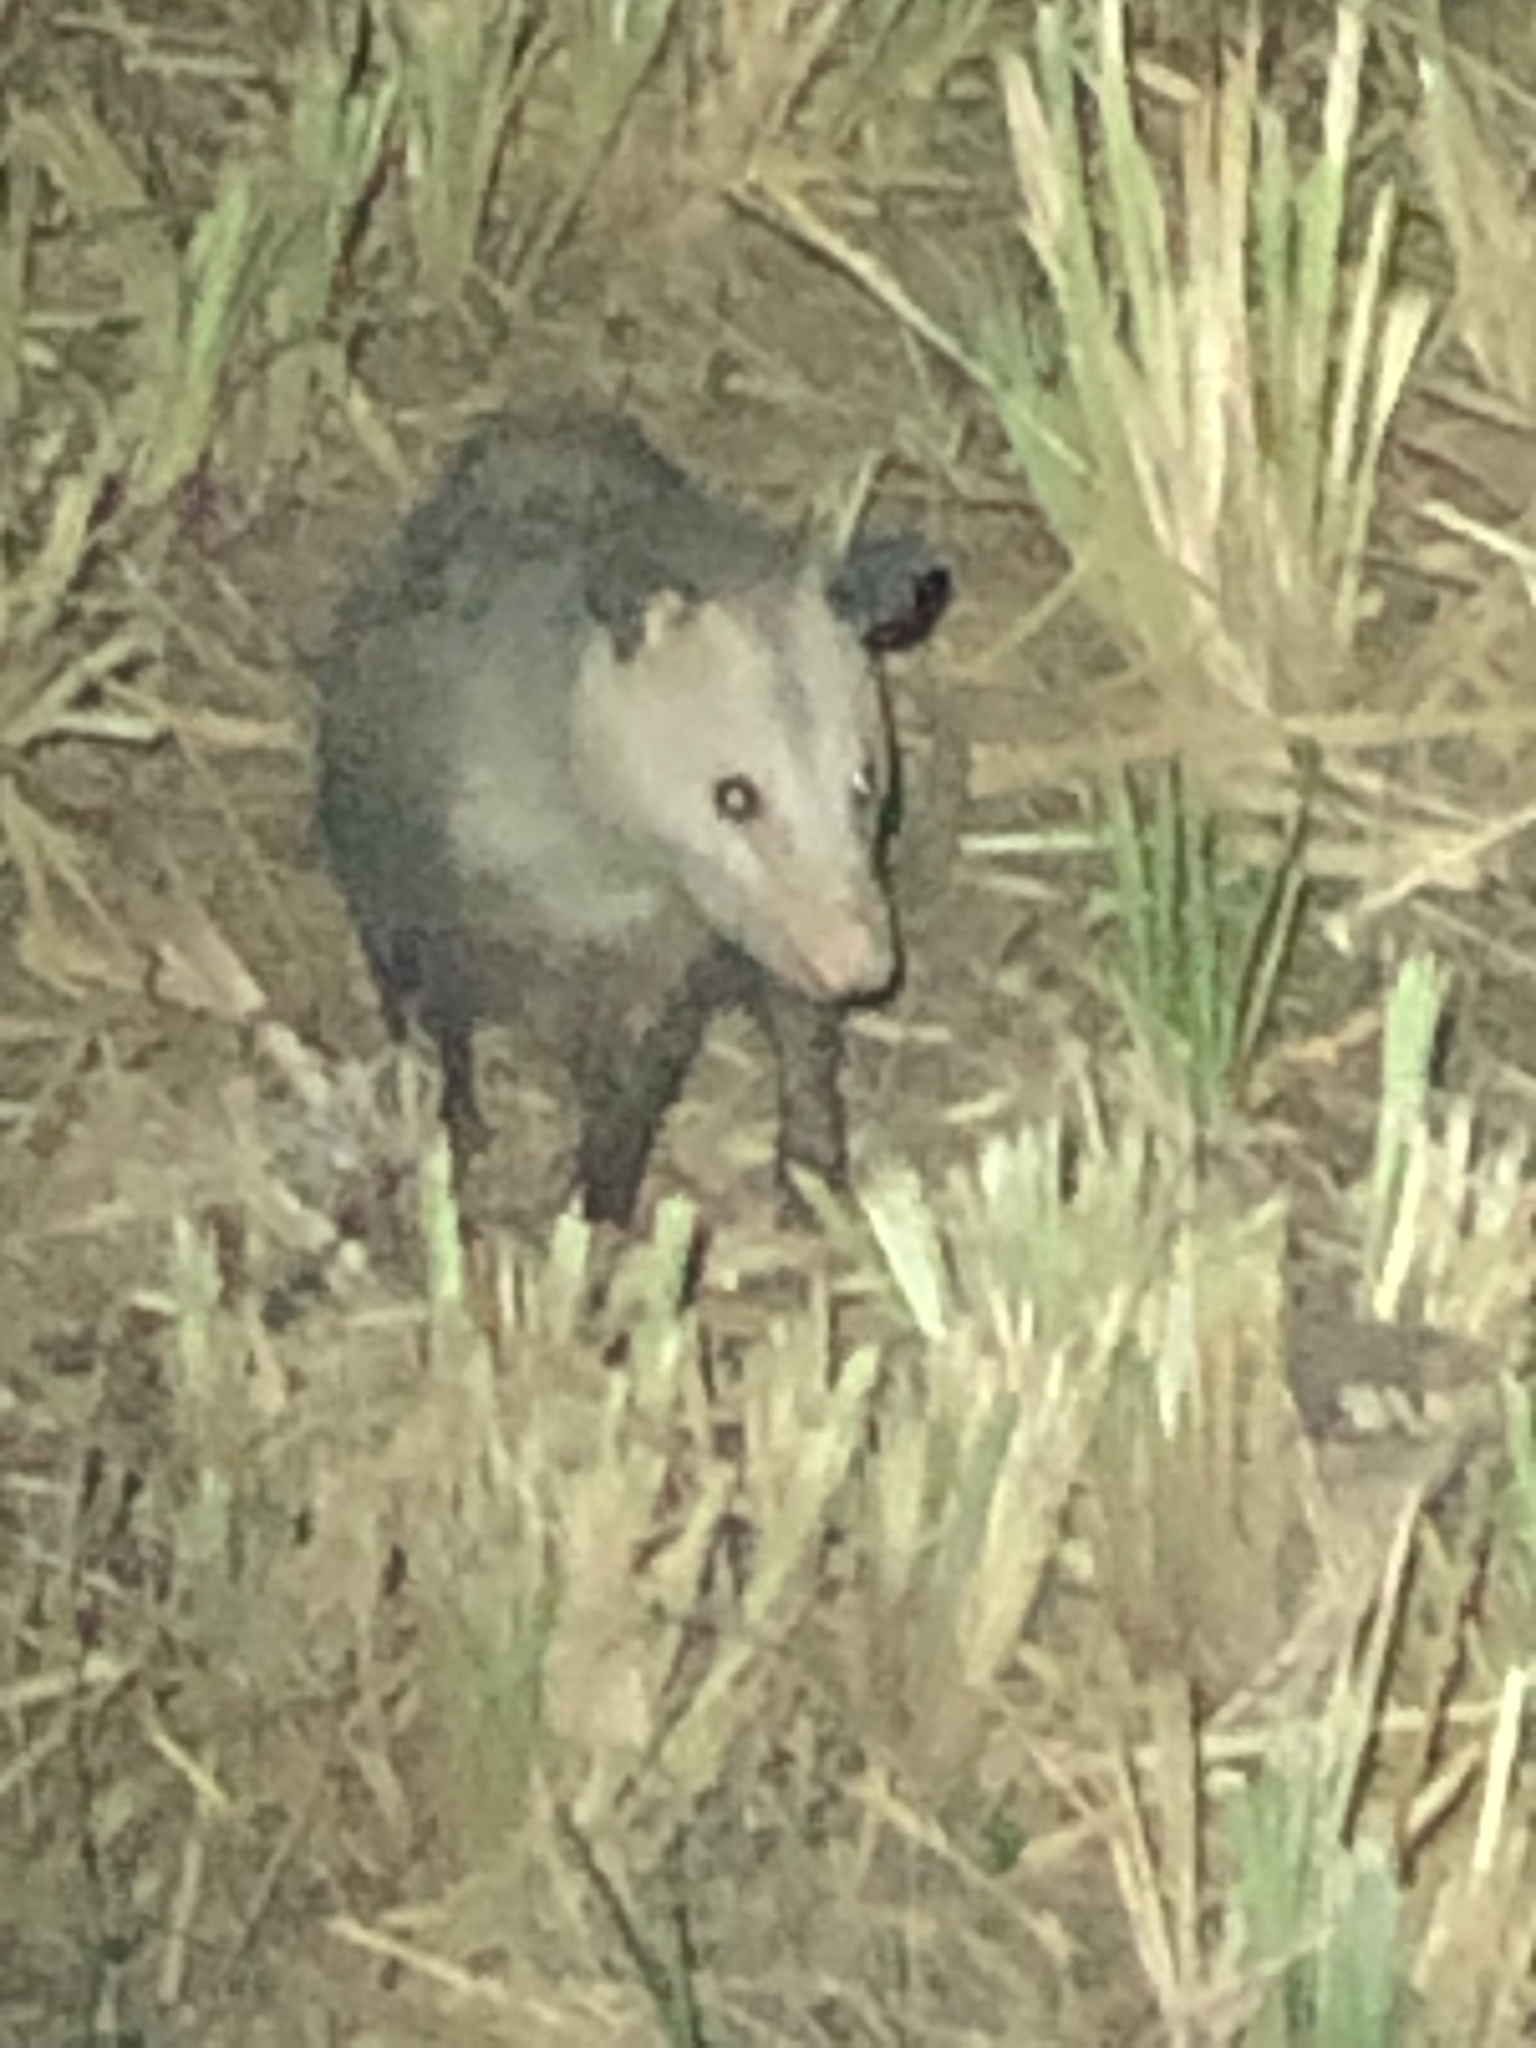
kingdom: Animalia
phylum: Chordata
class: Mammalia
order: Didelphimorphia
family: Didelphidae
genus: Didelphis
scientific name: Didelphis virginiana
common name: Virginia opossum
